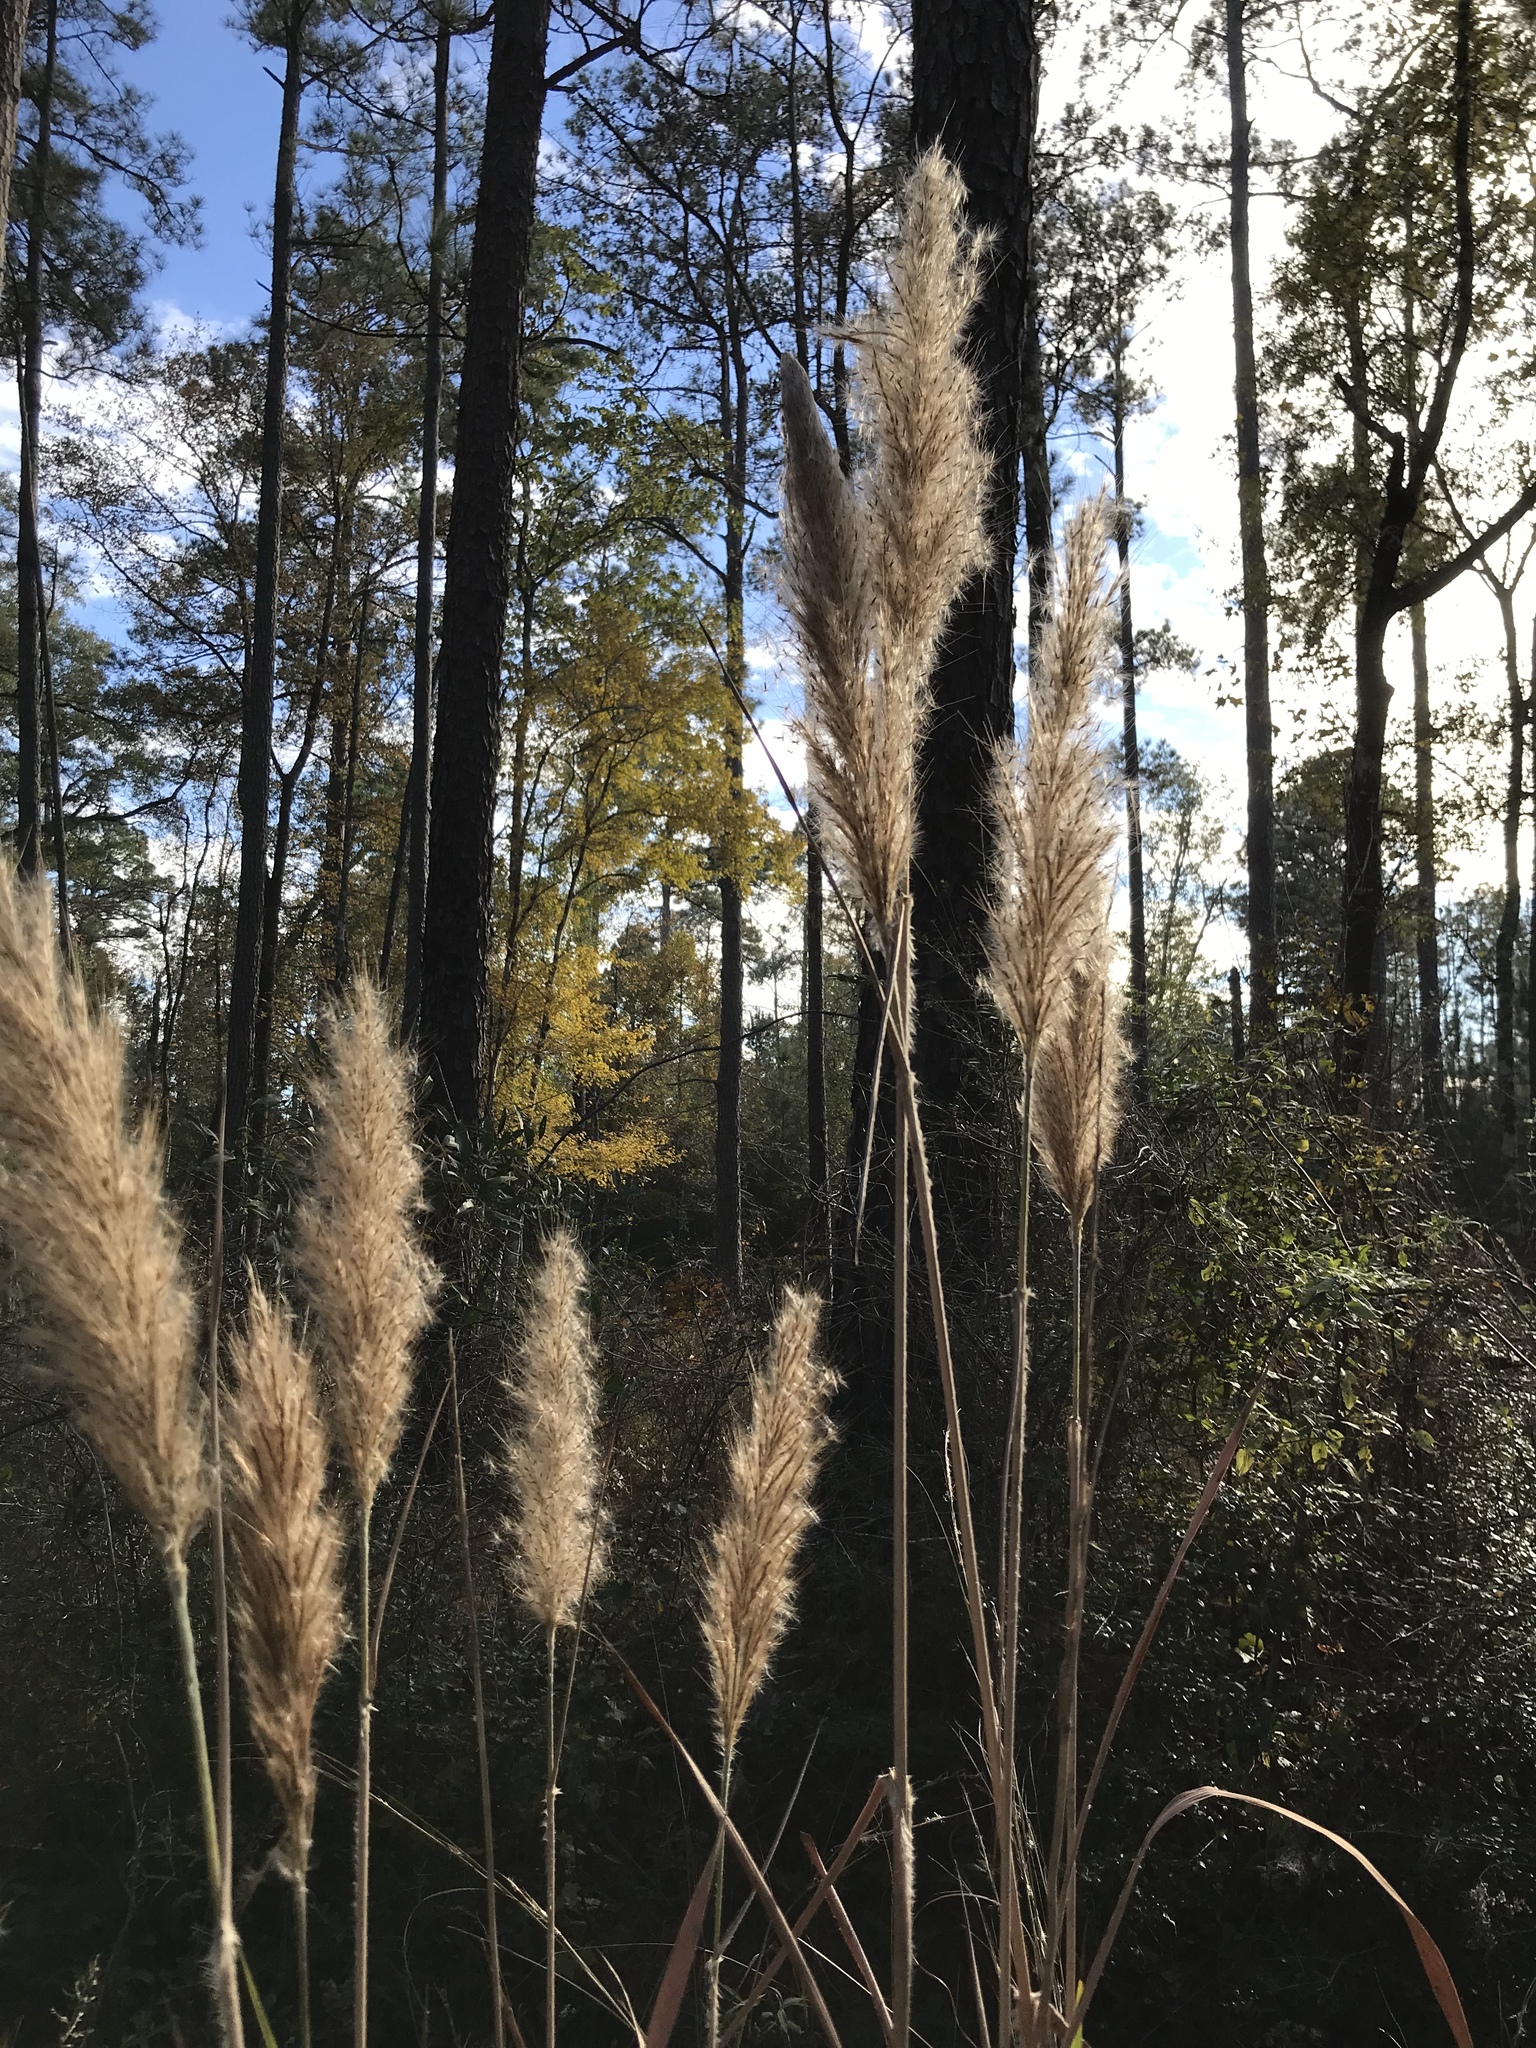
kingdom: Plantae
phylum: Tracheophyta
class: Liliopsida
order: Poales
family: Poaceae
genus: Erianthus
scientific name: Erianthus giganteus
